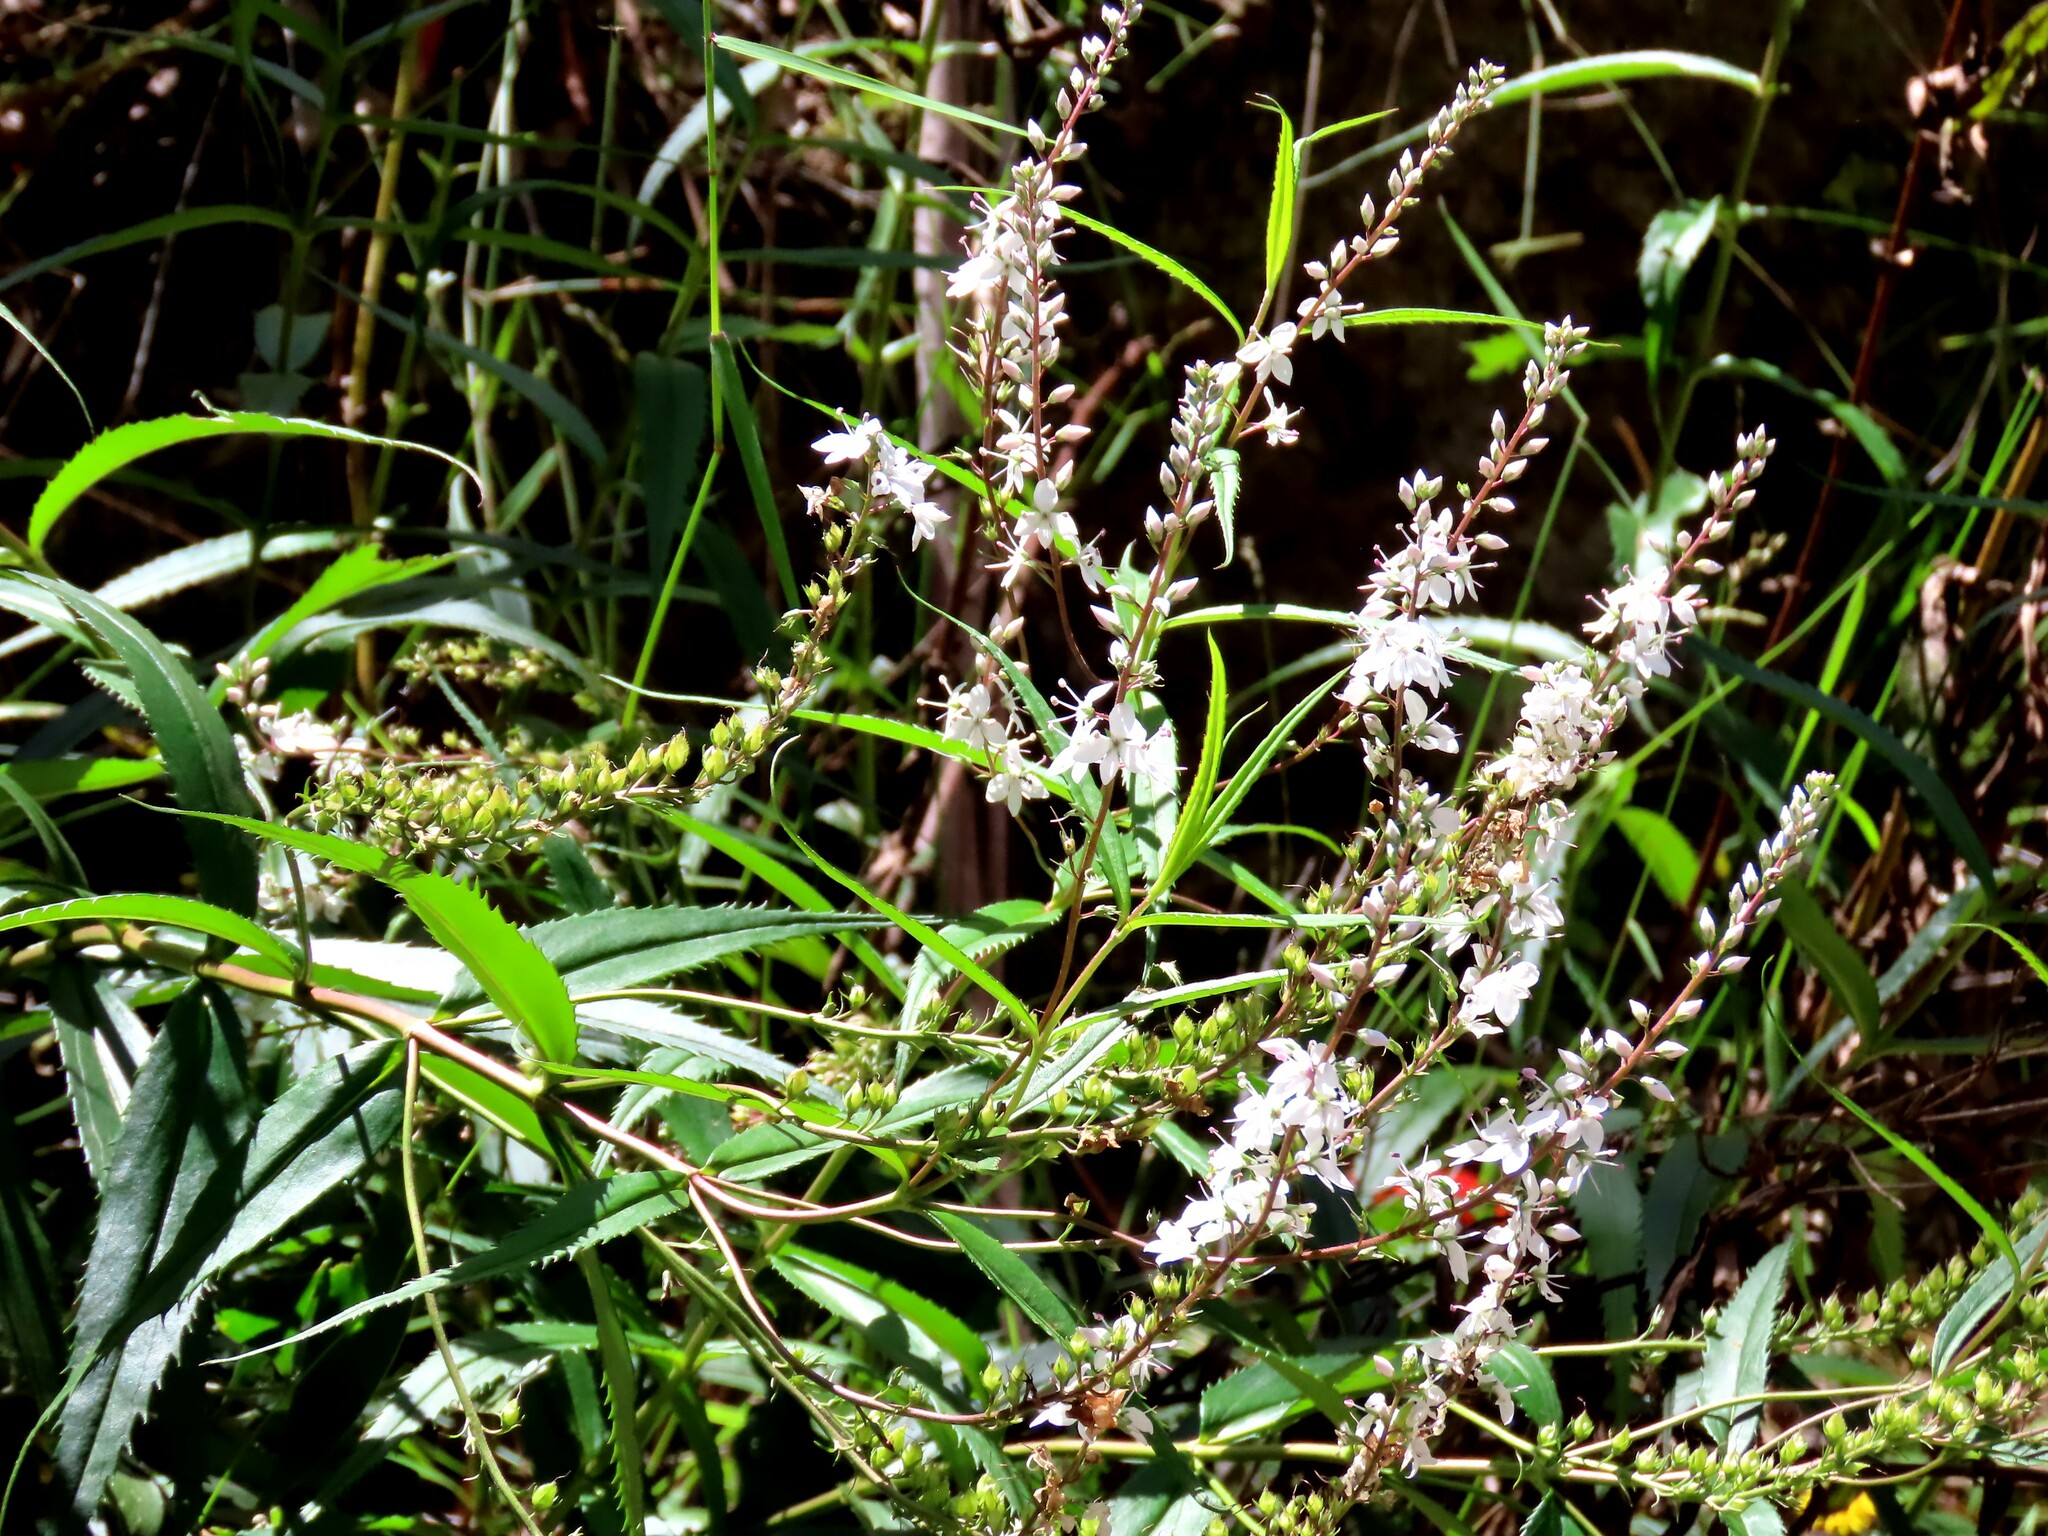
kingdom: Plantae
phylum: Tracheophyta
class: Magnoliopsida
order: Lamiales
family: Plantaginaceae
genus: Veronica
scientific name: Veronica derwentiana
